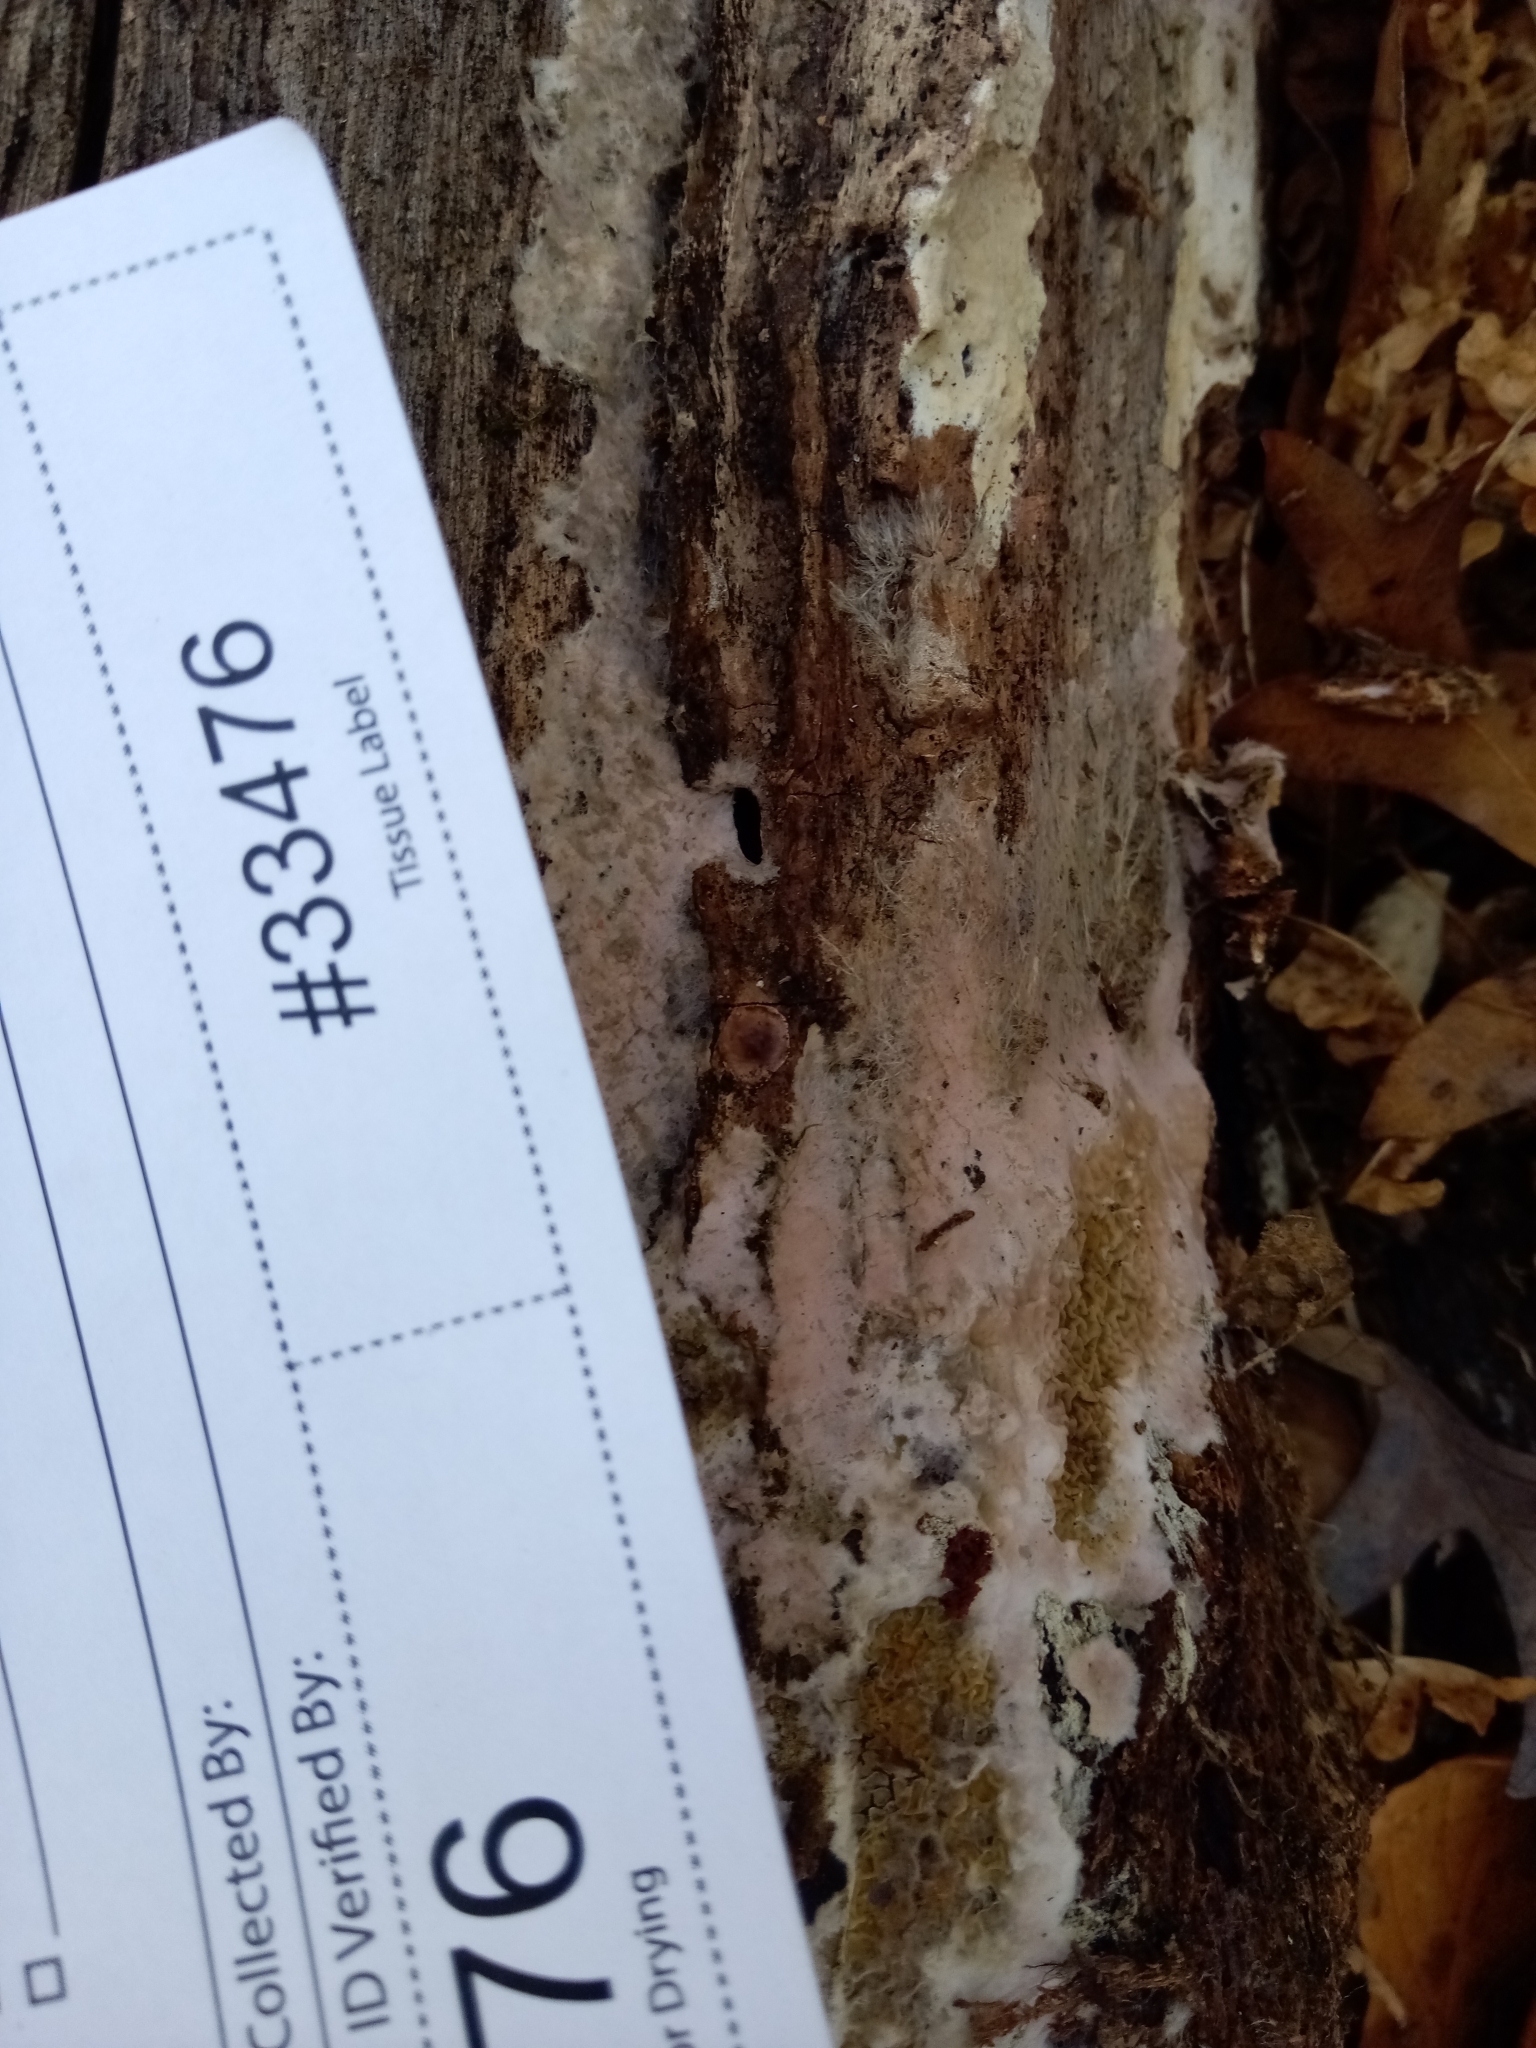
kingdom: Fungi
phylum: Basidiomycota
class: Agaricomycetes
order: Boletales
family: Serpulaceae
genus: Serpula
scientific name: Serpula himantioides
